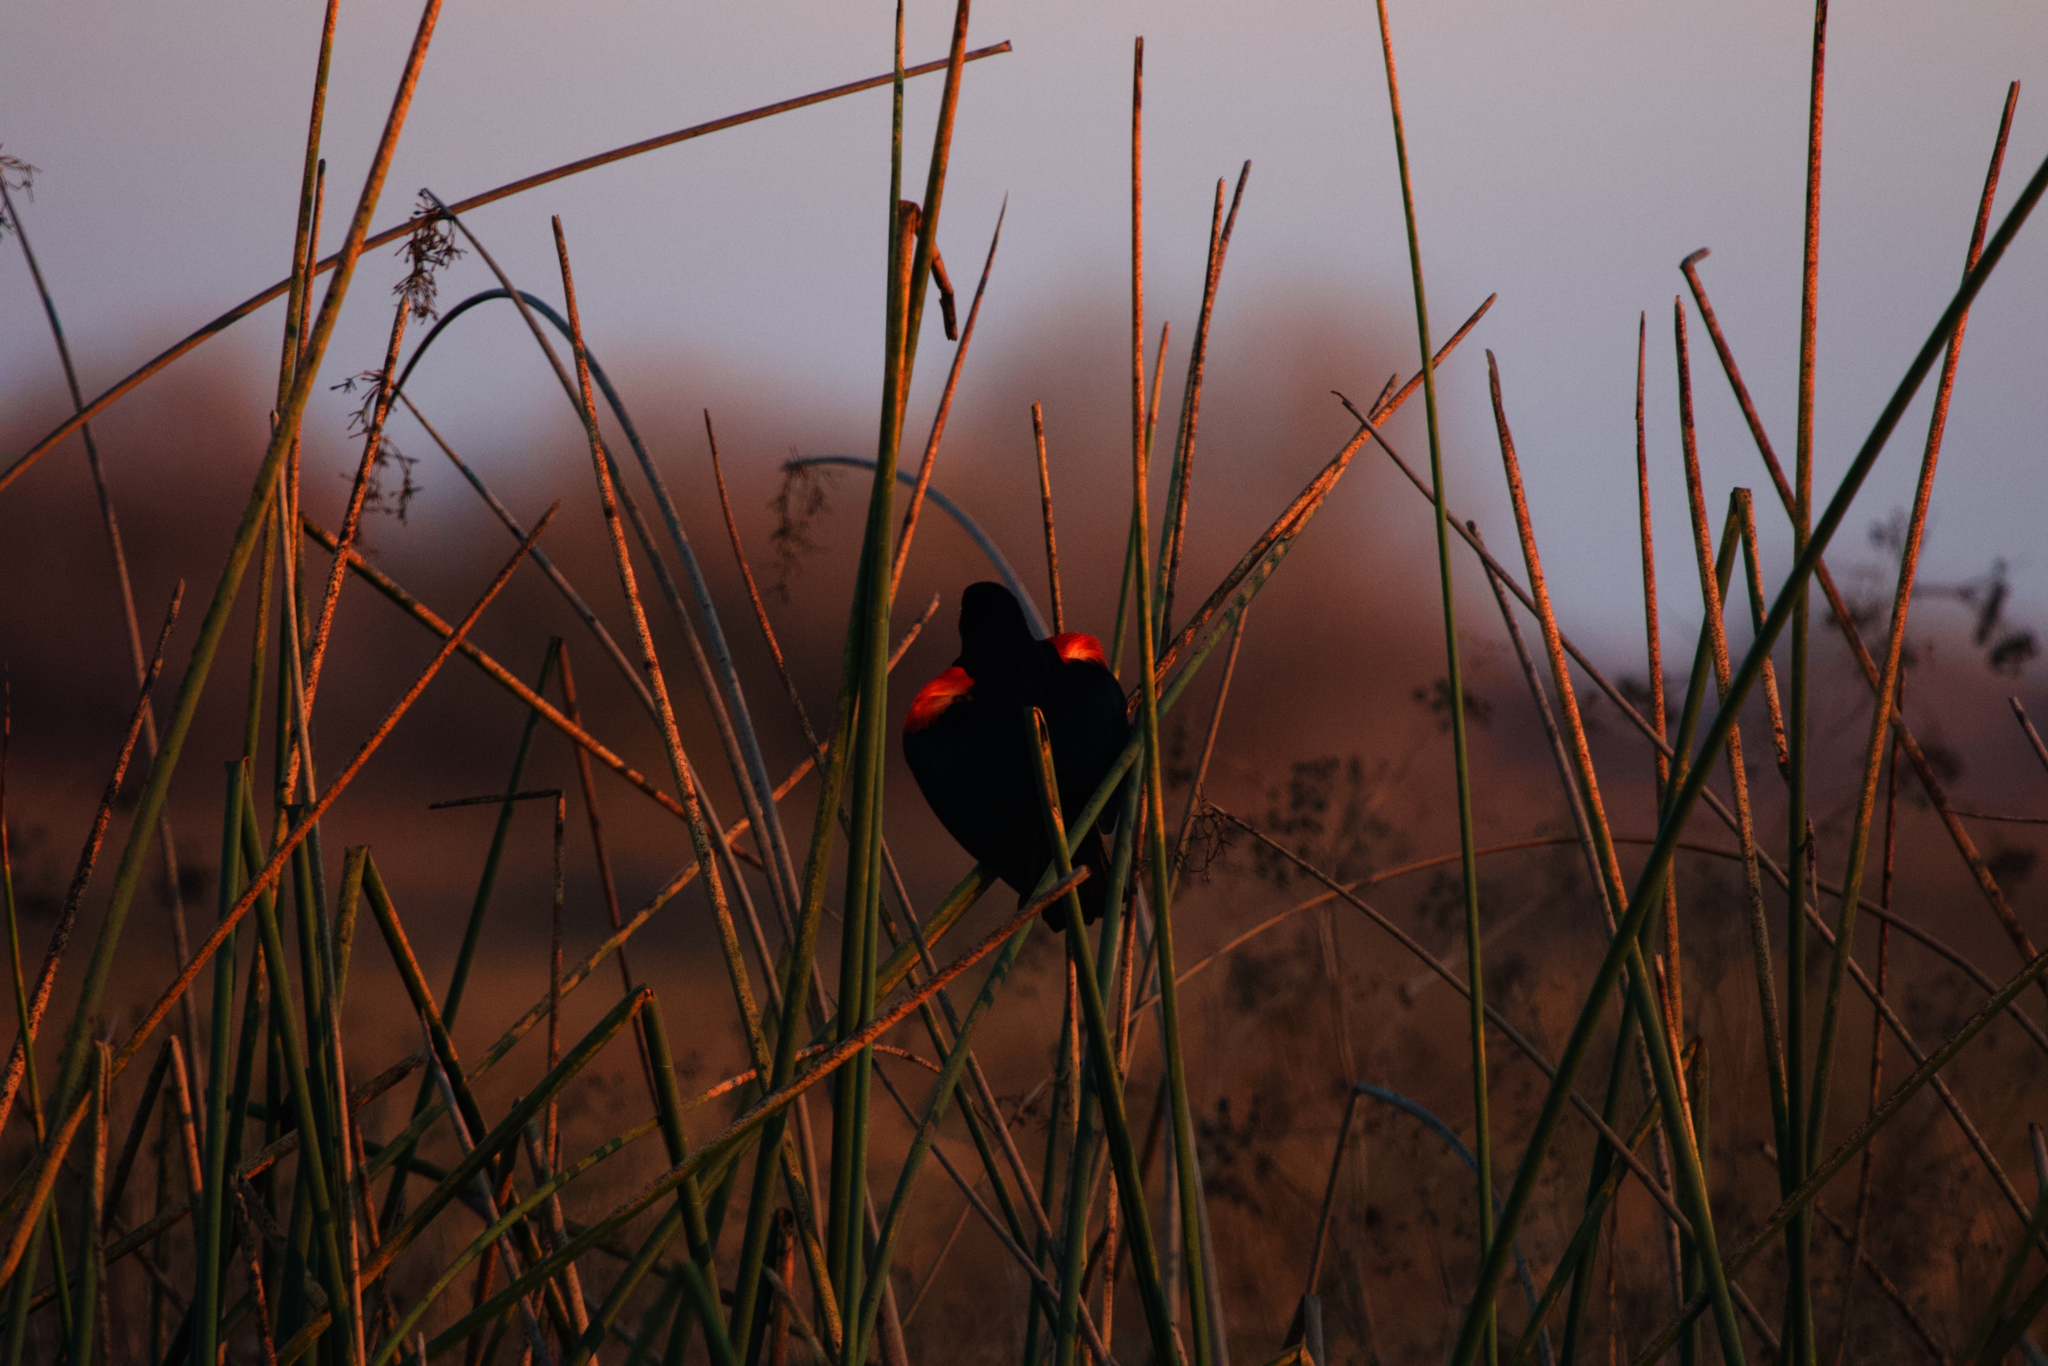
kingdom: Animalia
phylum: Chordata
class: Aves
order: Passeriformes
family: Icteridae
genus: Agelaius
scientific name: Agelaius phoeniceus
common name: Red-winged blackbird
